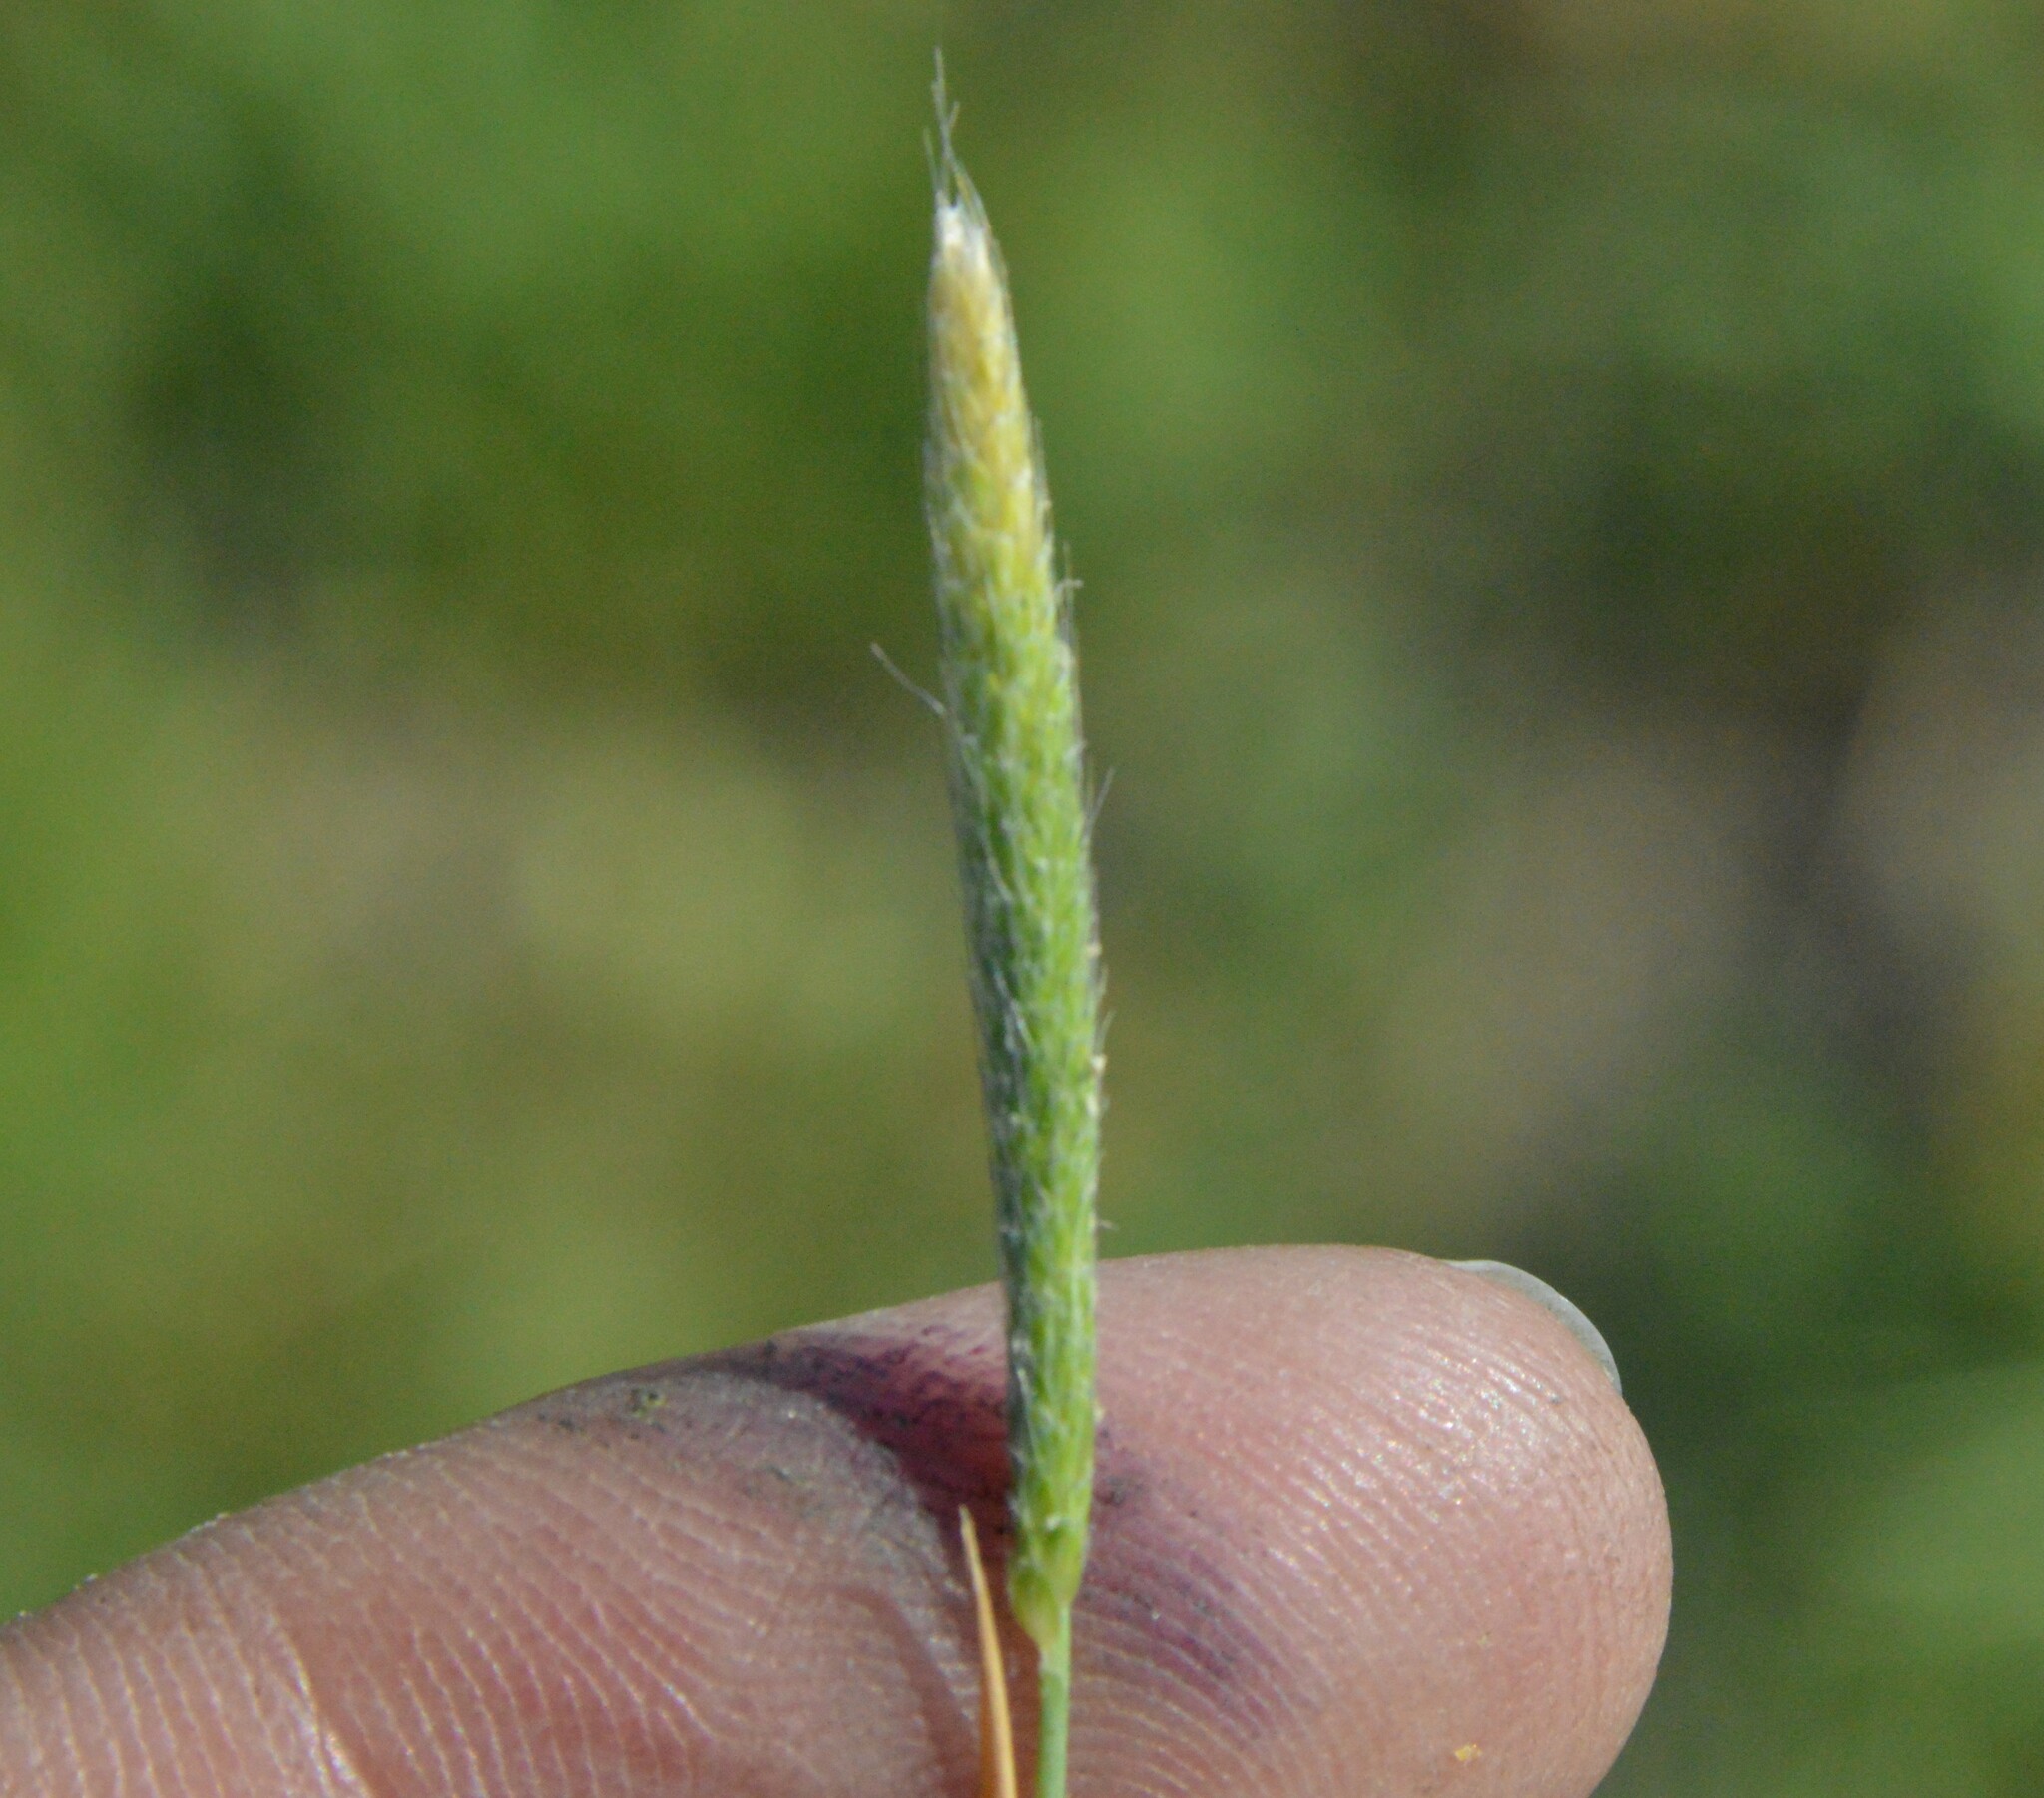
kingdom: Plantae
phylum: Tracheophyta
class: Liliopsida
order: Poales
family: Poaceae
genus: Alopecurus
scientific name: Alopecurus carolinianus
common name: Tufted foxtail
